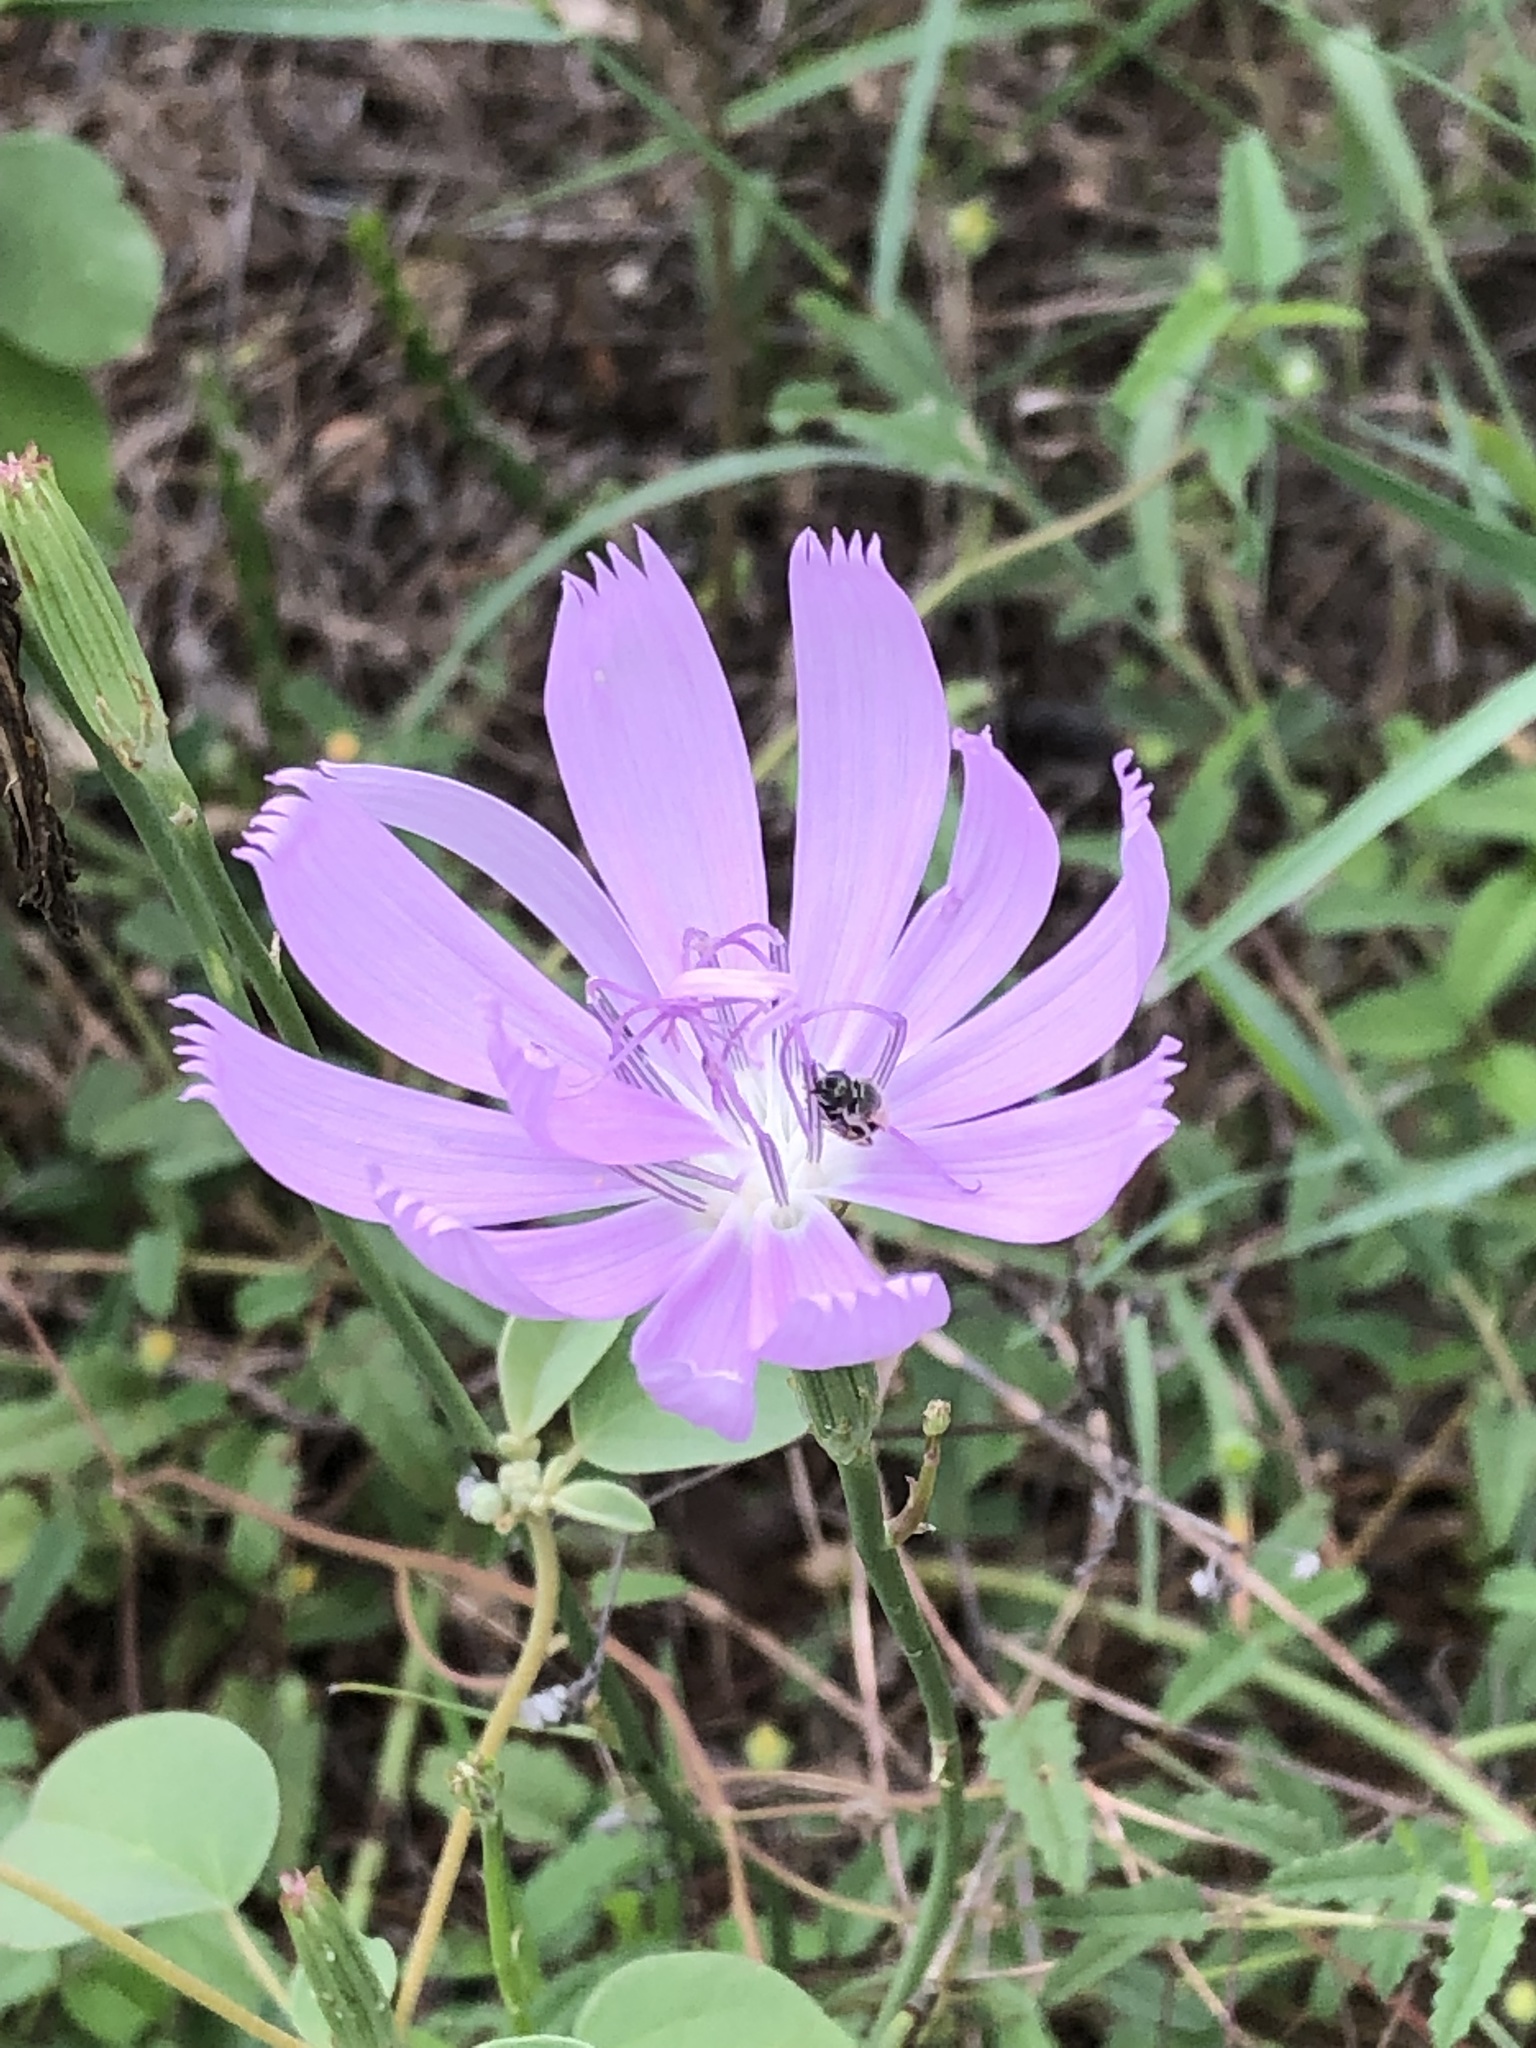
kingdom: Plantae
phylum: Tracheophyta
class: Magnoliopsida
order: Asterales
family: Asteraceae
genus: Lygodesmia
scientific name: Lygodesmia texana
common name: Texas skeleton-plant
